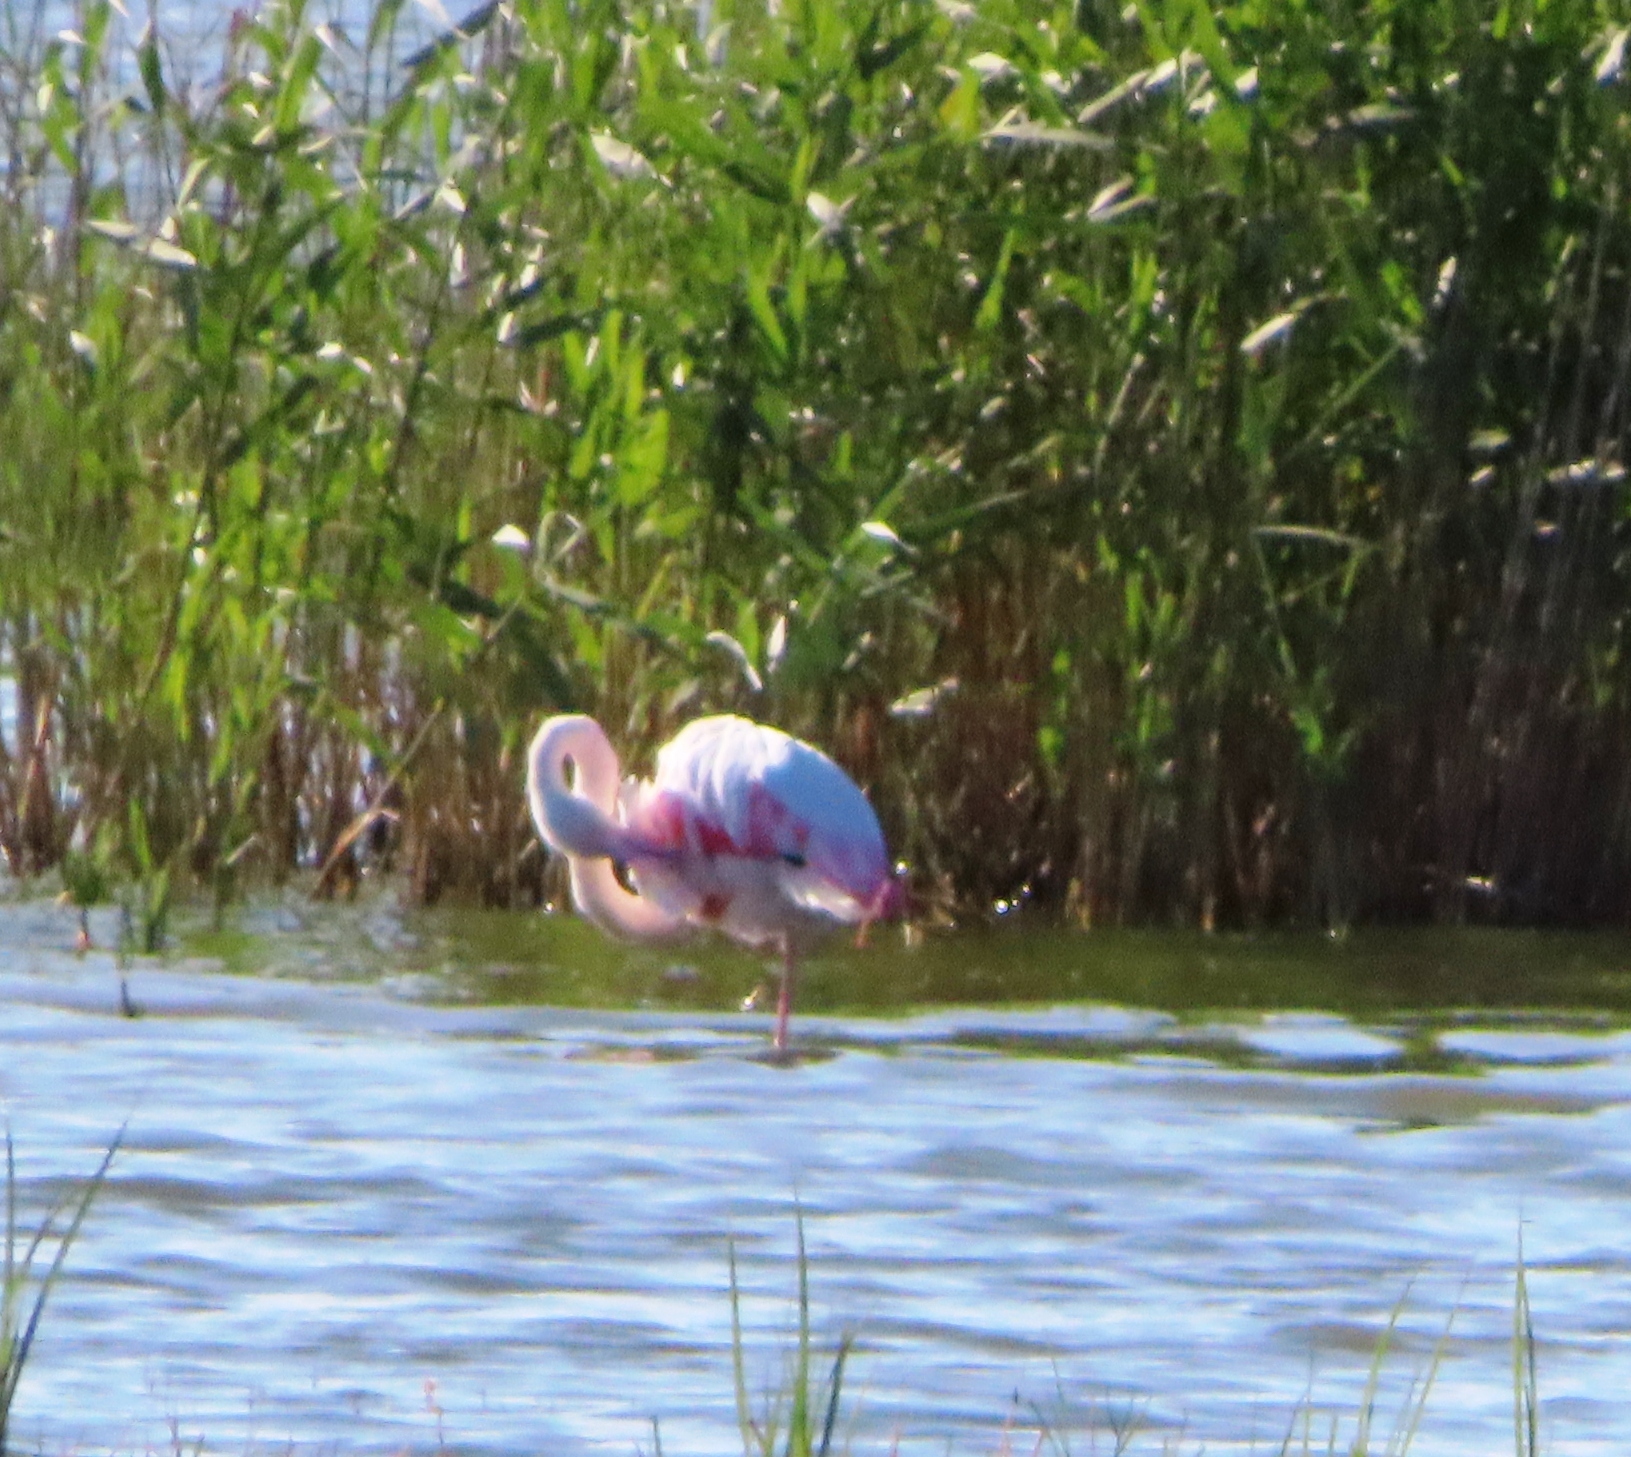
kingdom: Animalia
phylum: Chordata
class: Aves
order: Phoenicopteriformes
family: Phoenicopteridae
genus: Phoenicopterus
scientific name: Phoenicopterus roseus
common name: Greater flamingo
